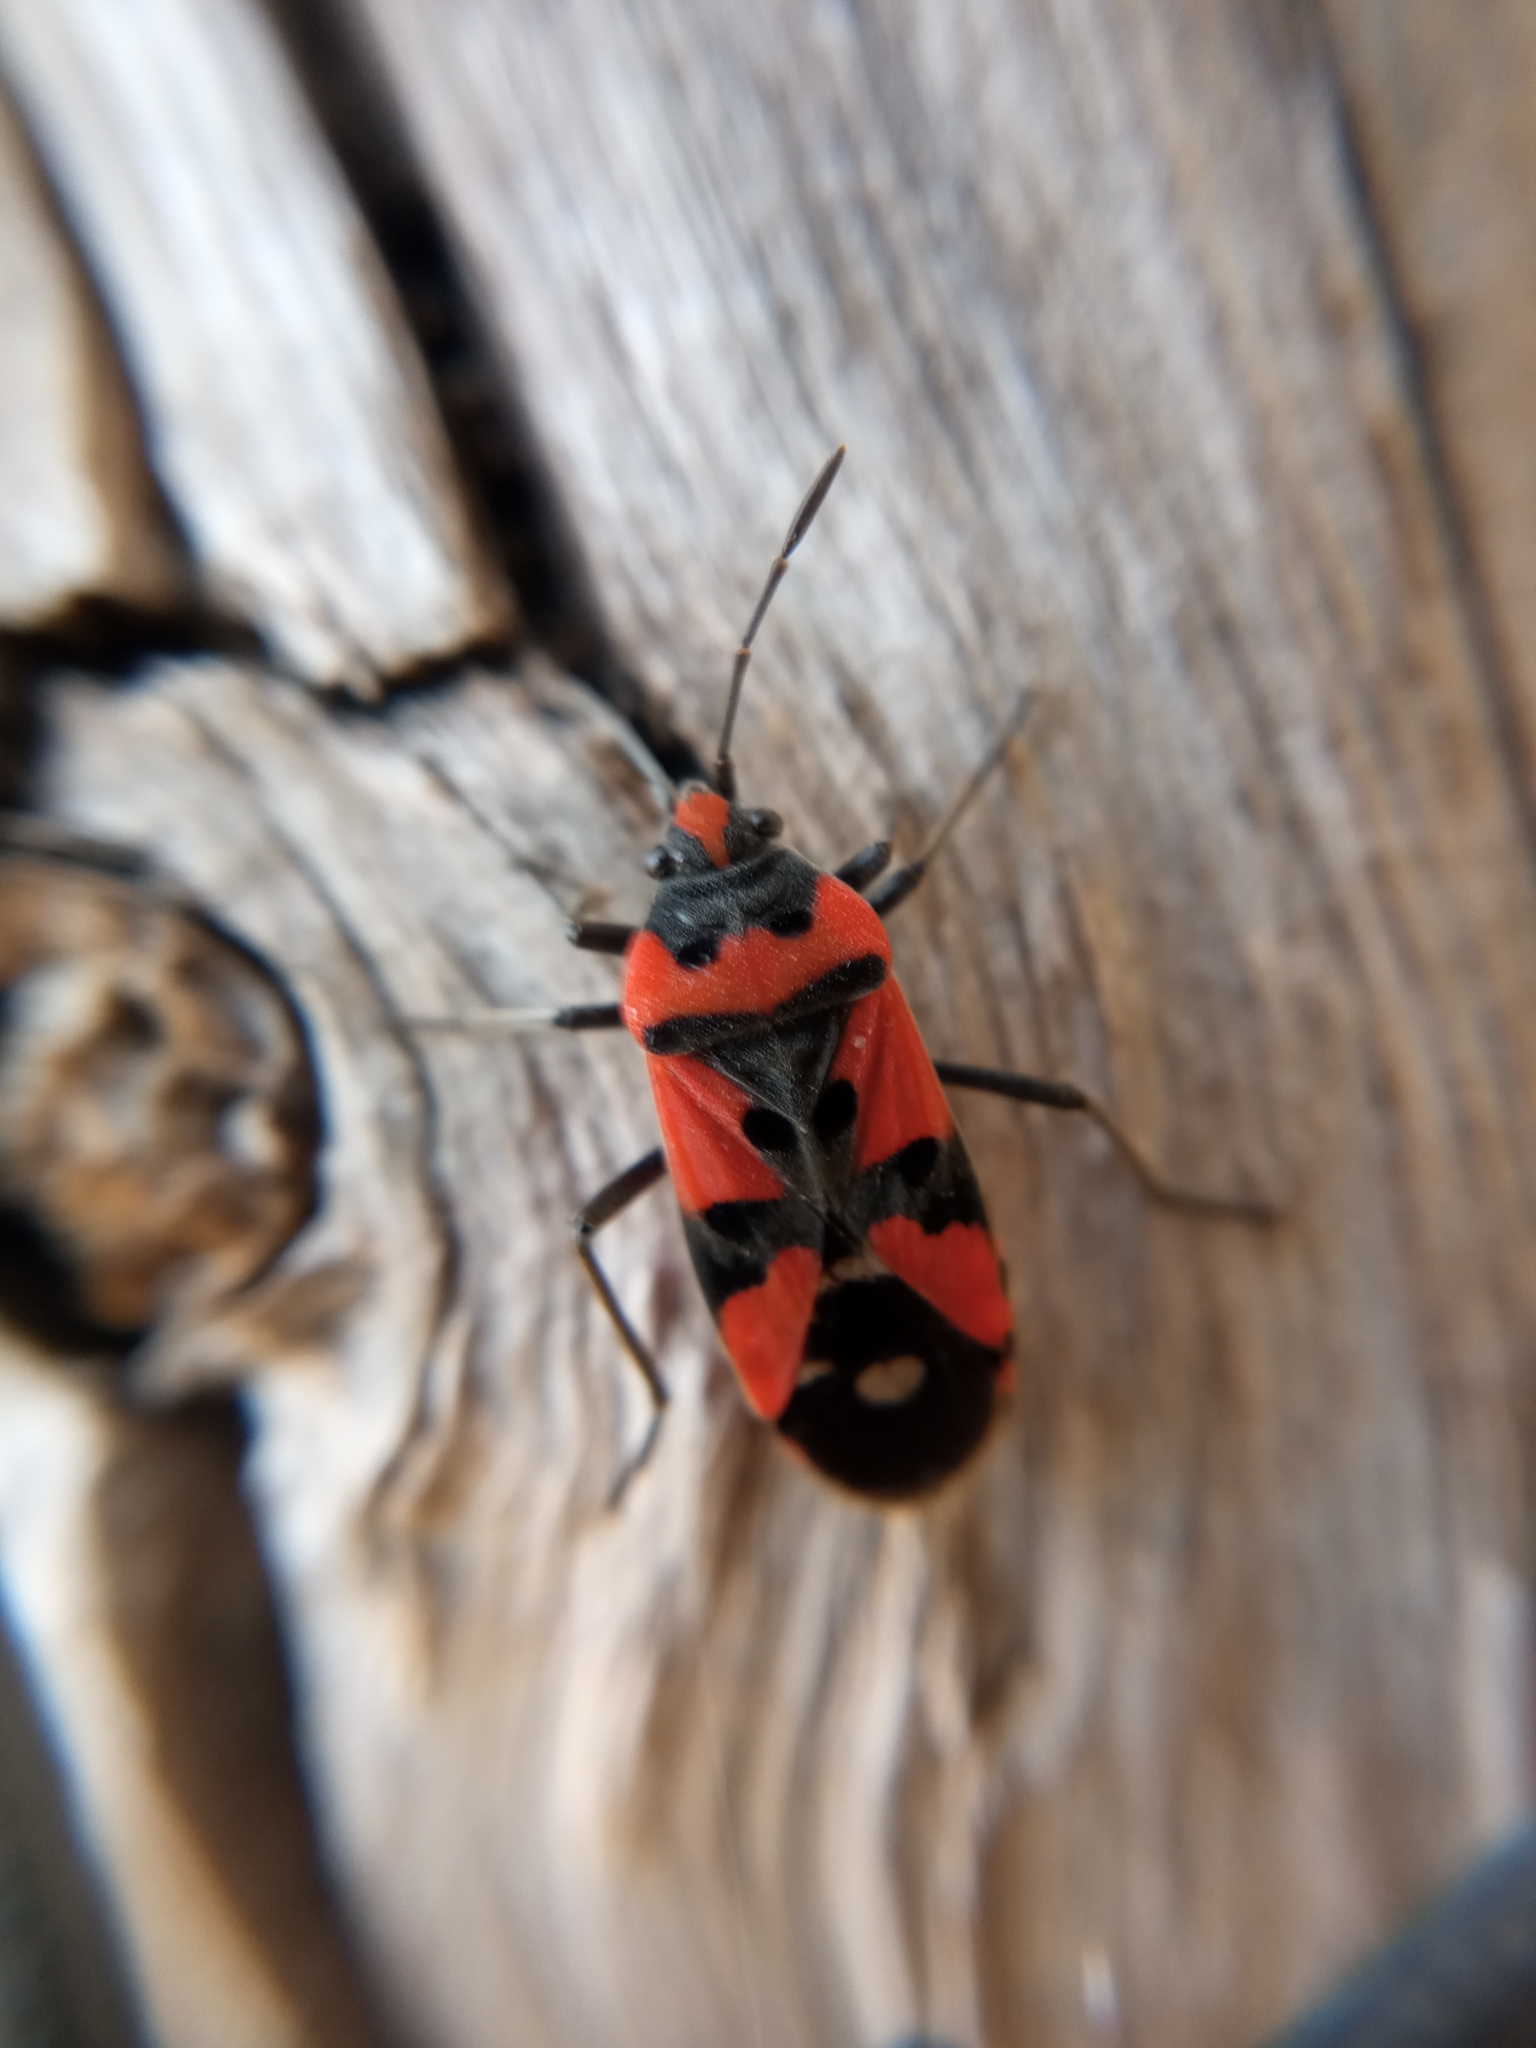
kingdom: Animalia
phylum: Arthropoda
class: Insecta
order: Hemiptera
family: Lygaeidae
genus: Lygaeus
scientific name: Lygaeus equestris
